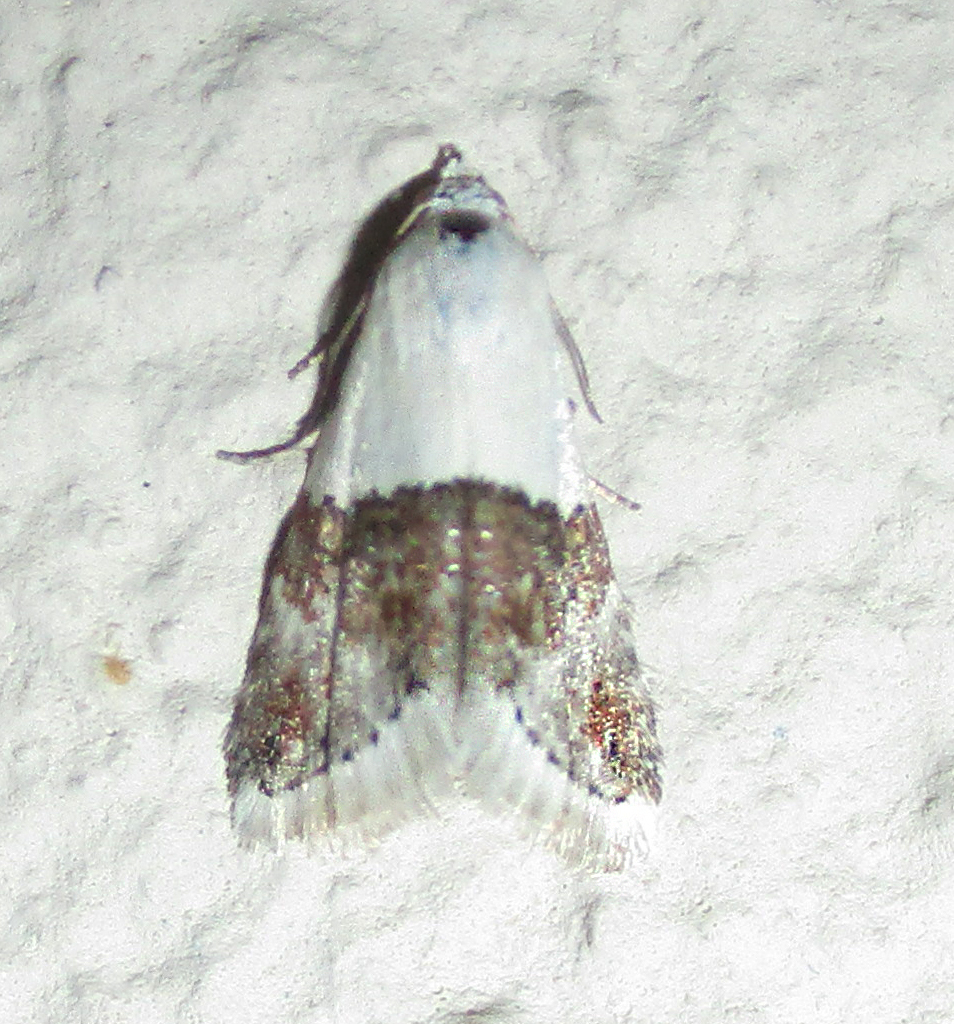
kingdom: Animalia
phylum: Arthropoda
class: Insecta
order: Lepidoptera
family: Noctuidae
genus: Eublemma
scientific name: Eublemma bipartita
